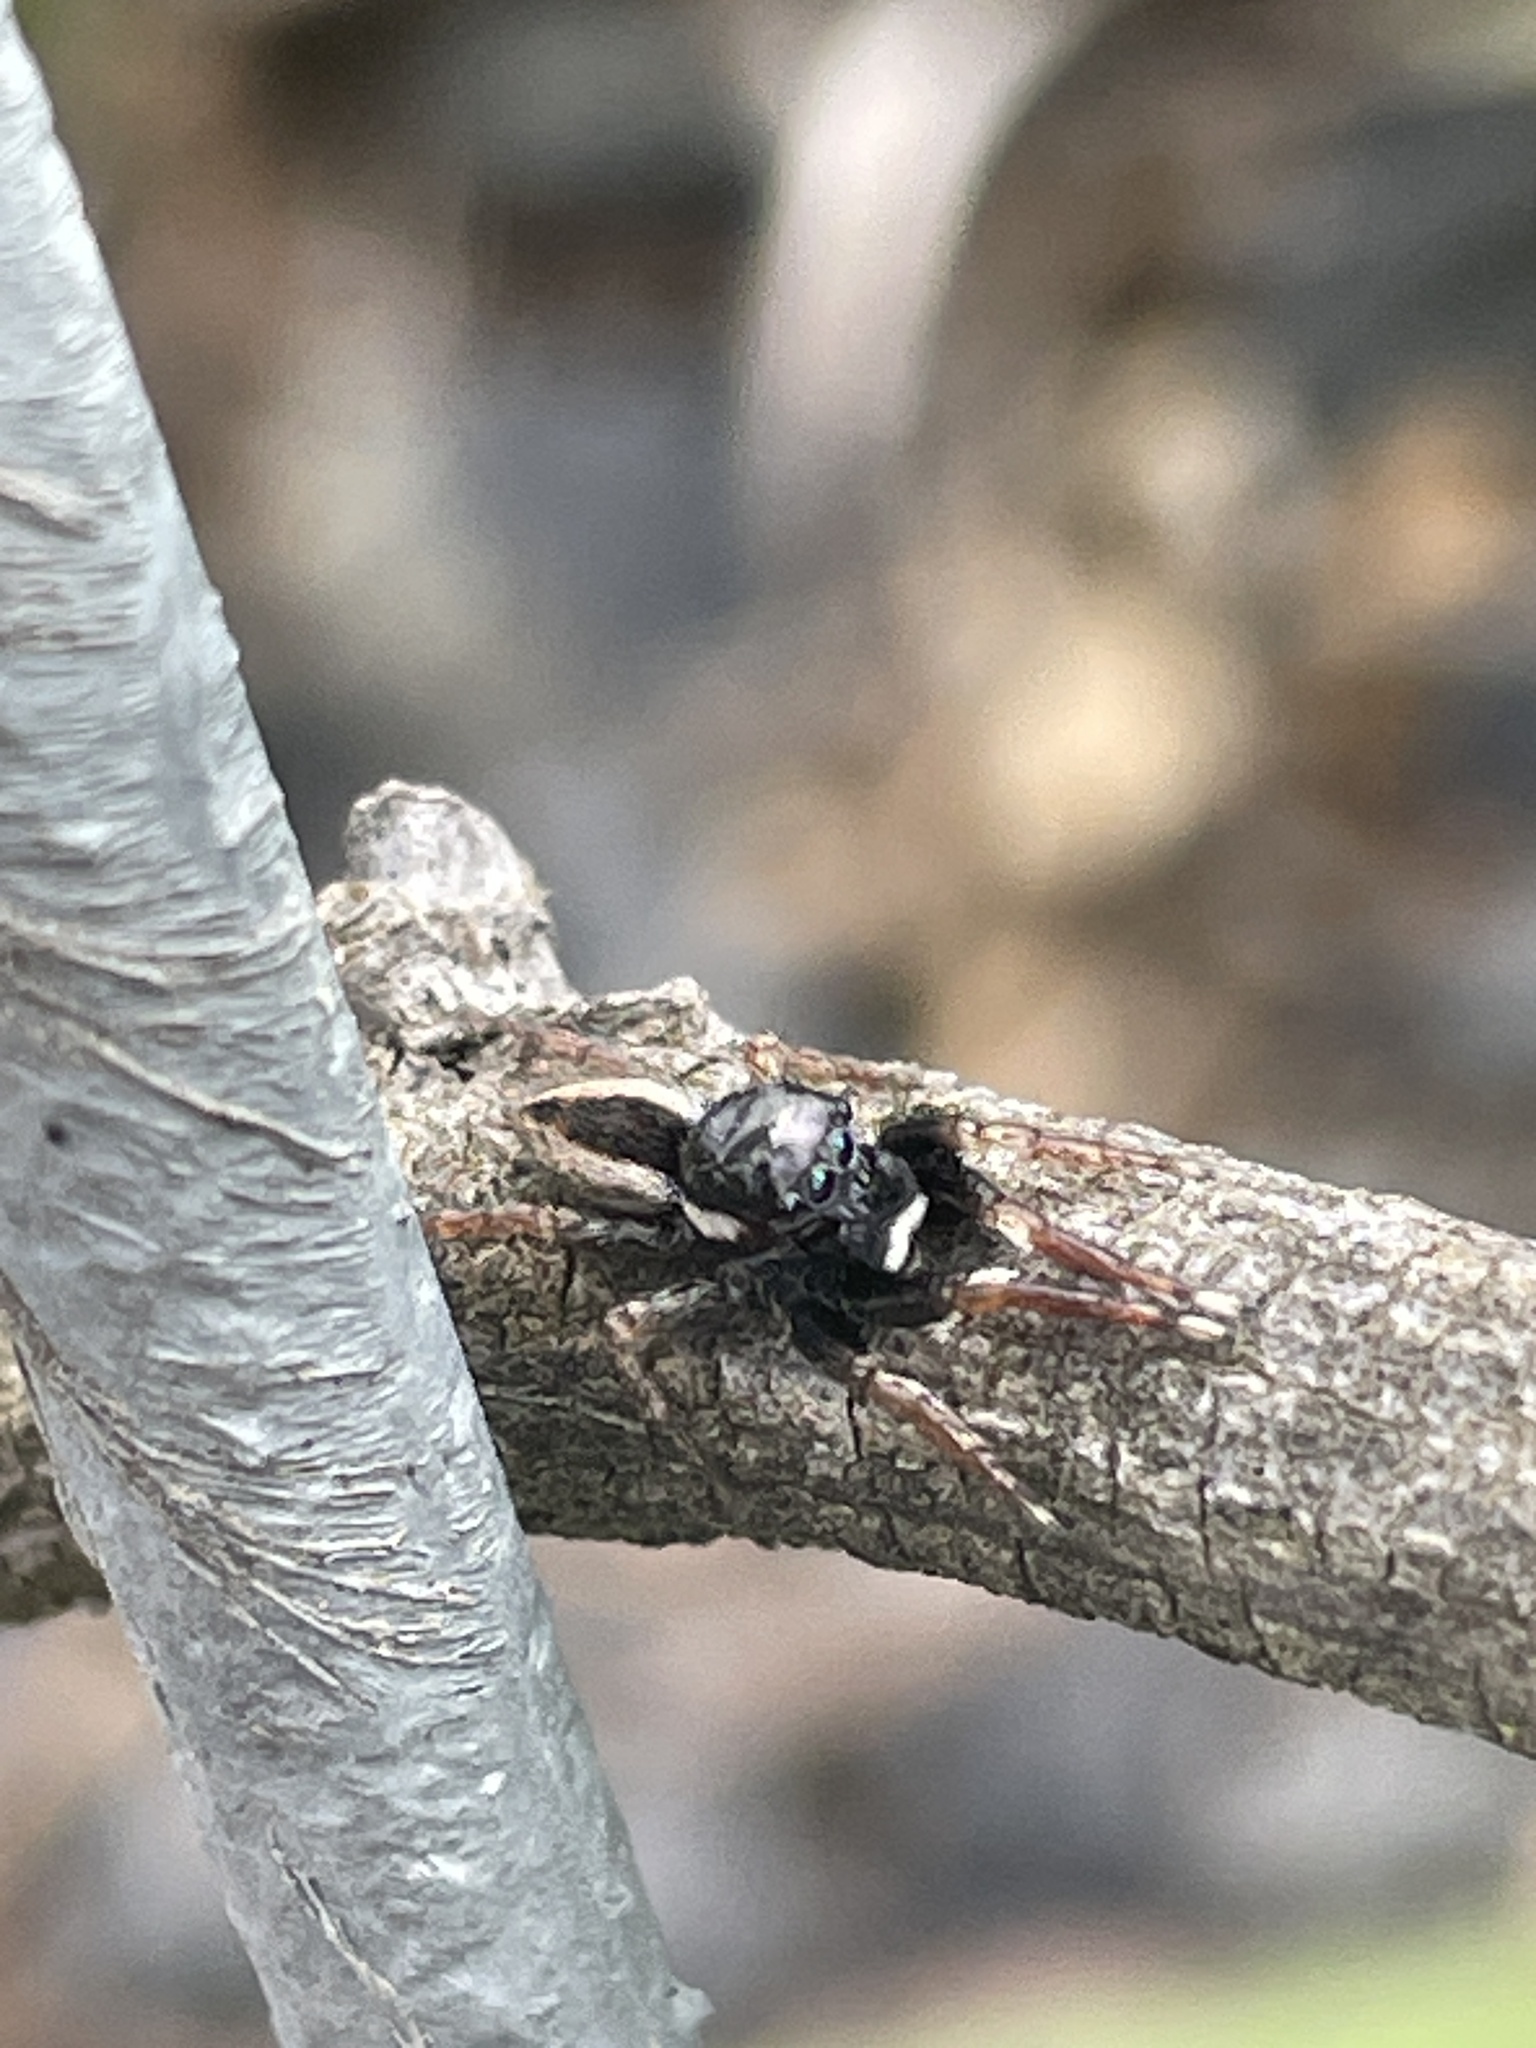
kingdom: Animalia
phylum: Arthropoda
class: Arachnida
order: Araneae
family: Salticidae
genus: Jotus
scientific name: Jotus frosti
